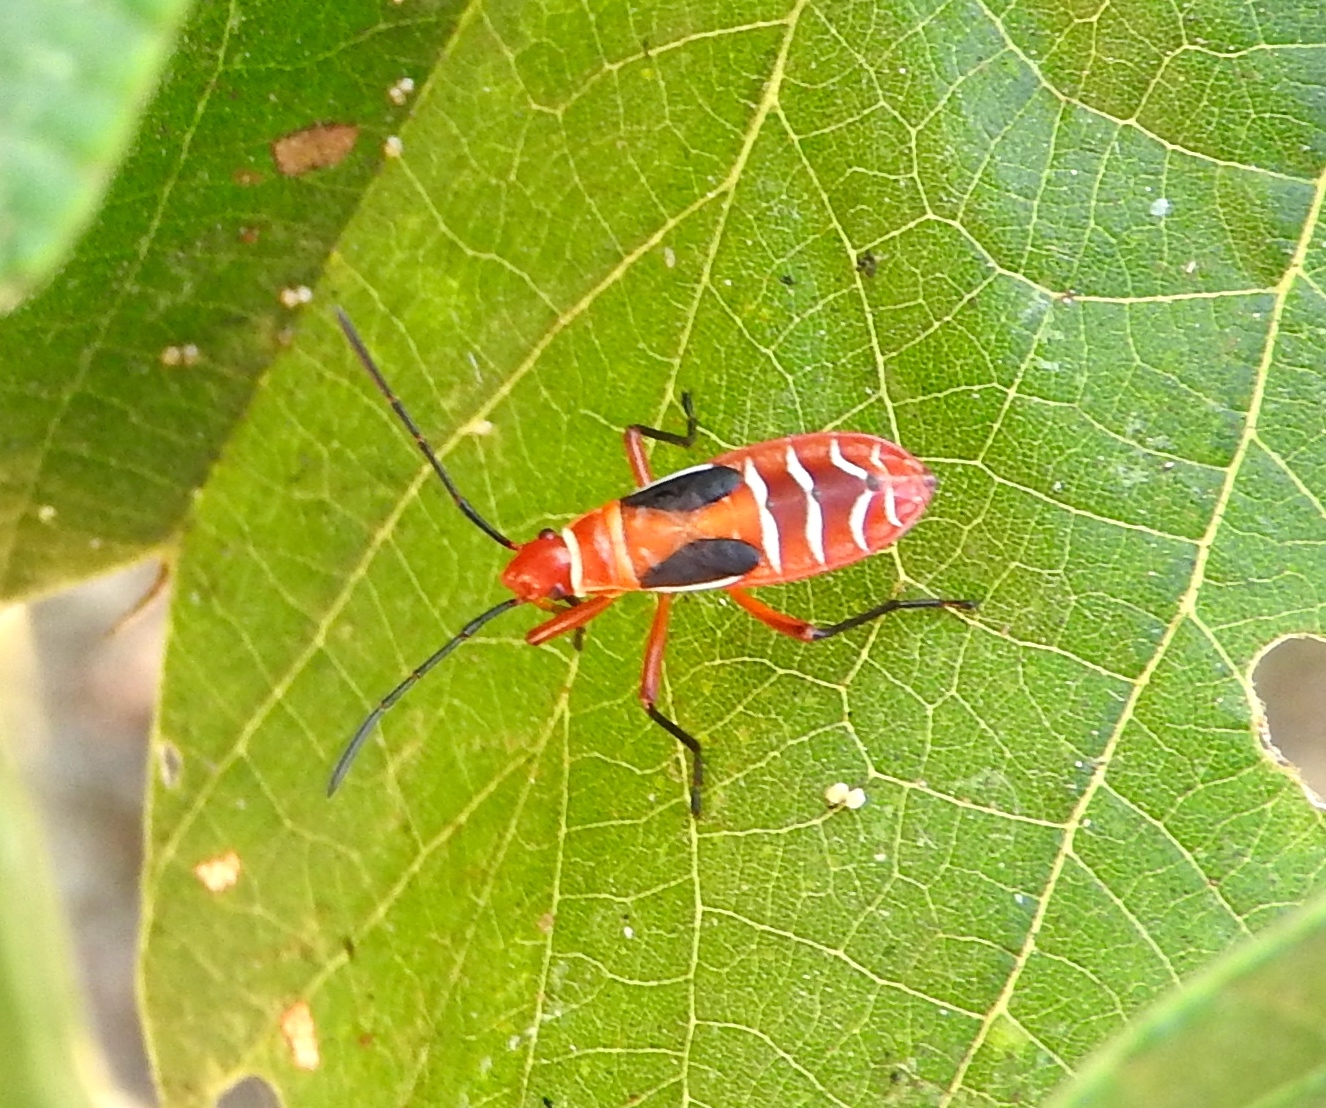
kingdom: Animalia
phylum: Arthropoda
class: Insecta
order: Hemiptera
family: Pyrrhocoridae
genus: Dysdercus
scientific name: Dysdercus
